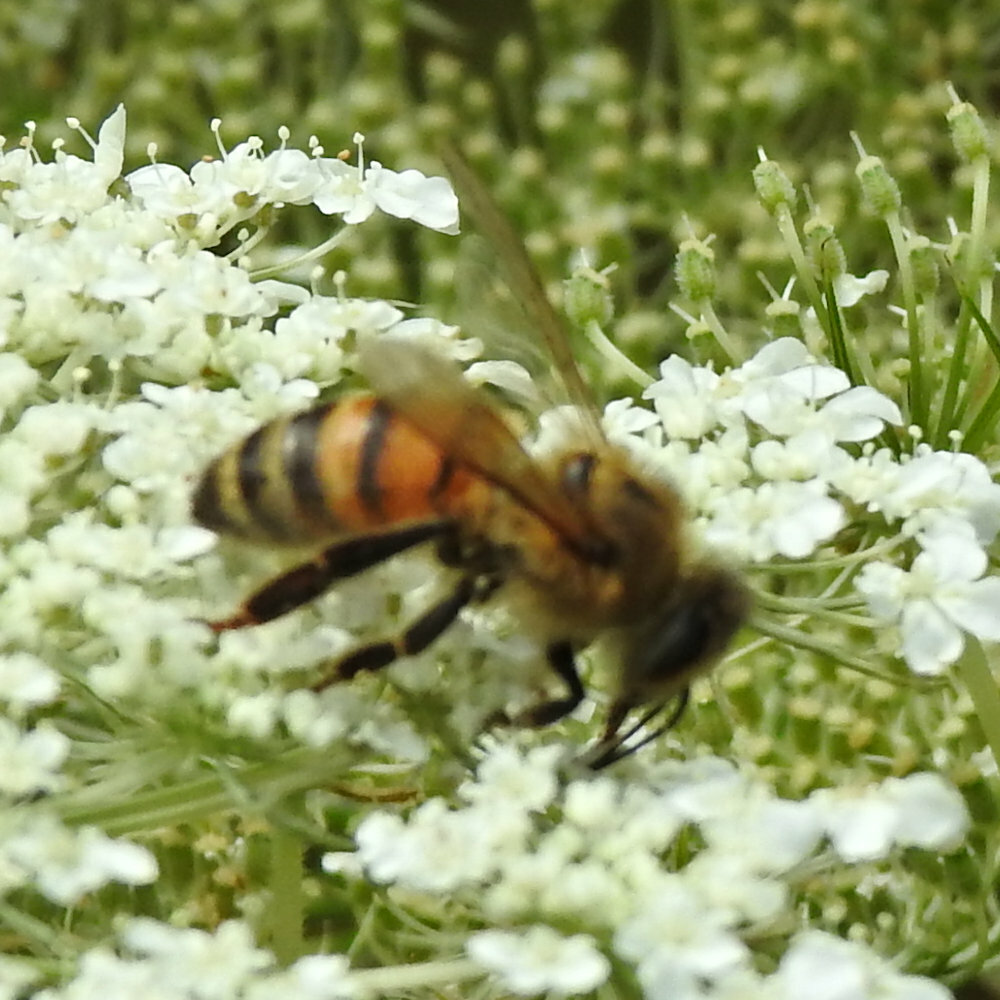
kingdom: Animalia
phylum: Arthropoda
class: Insecta
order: Hymenoptera
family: Apidae
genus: Apis
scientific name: Apis mellifera
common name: Honey bee
